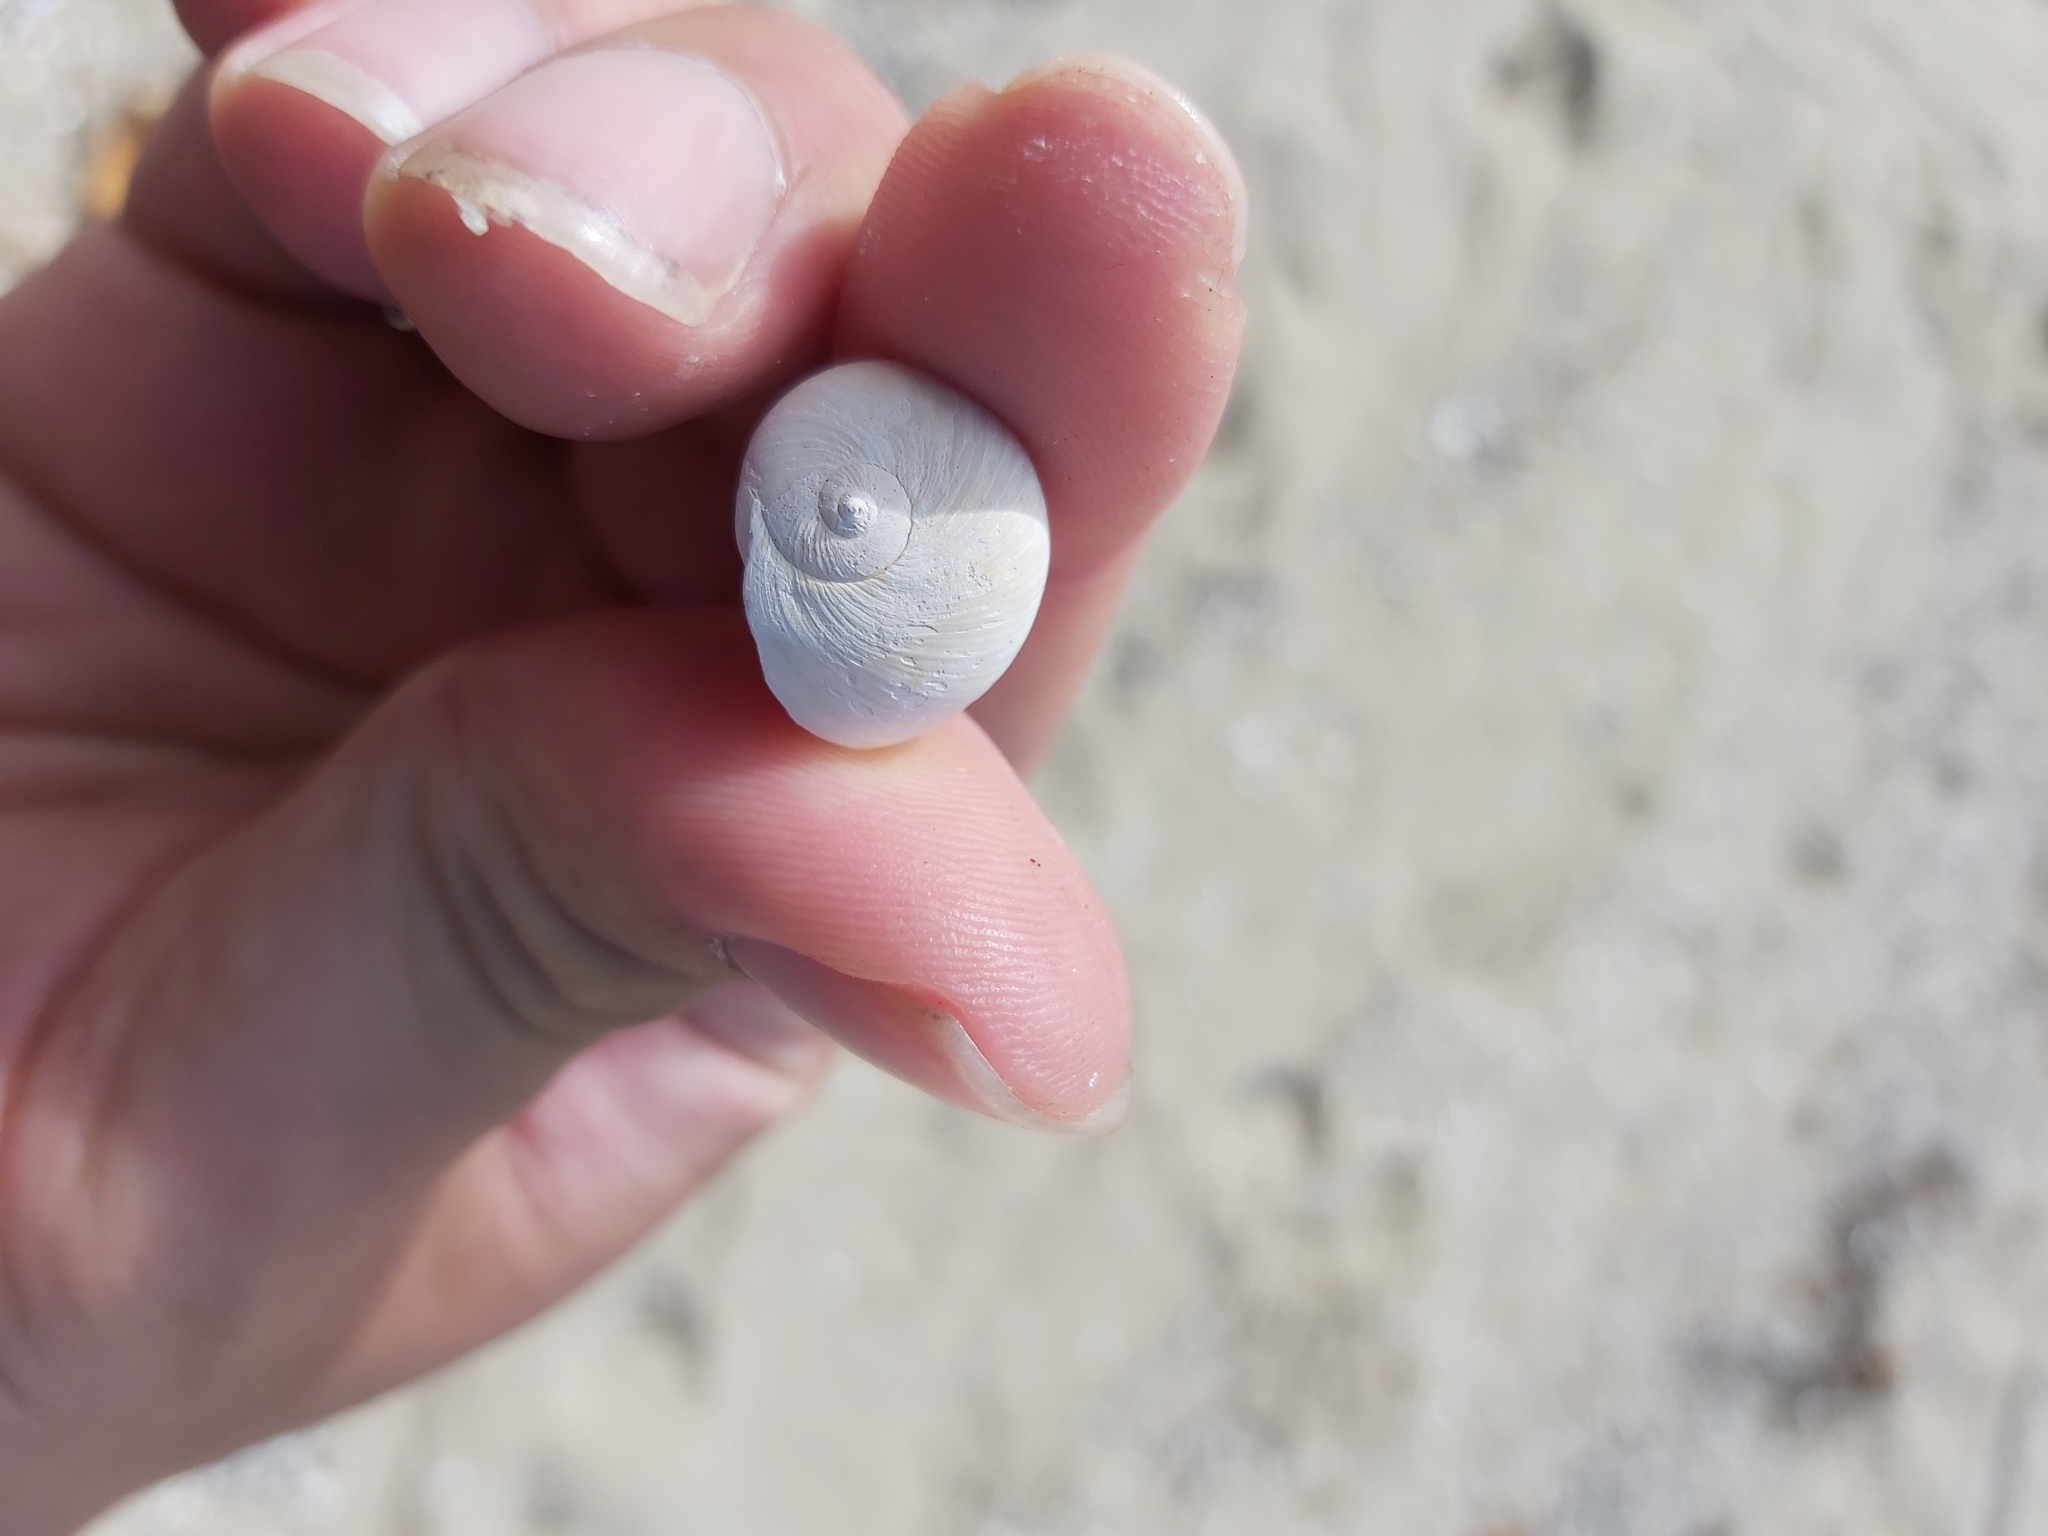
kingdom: Animalia
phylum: Mollusca
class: Gastropoda
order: Littorinimorpha
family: Naticidae
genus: Neverita
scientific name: Neverita didyma
